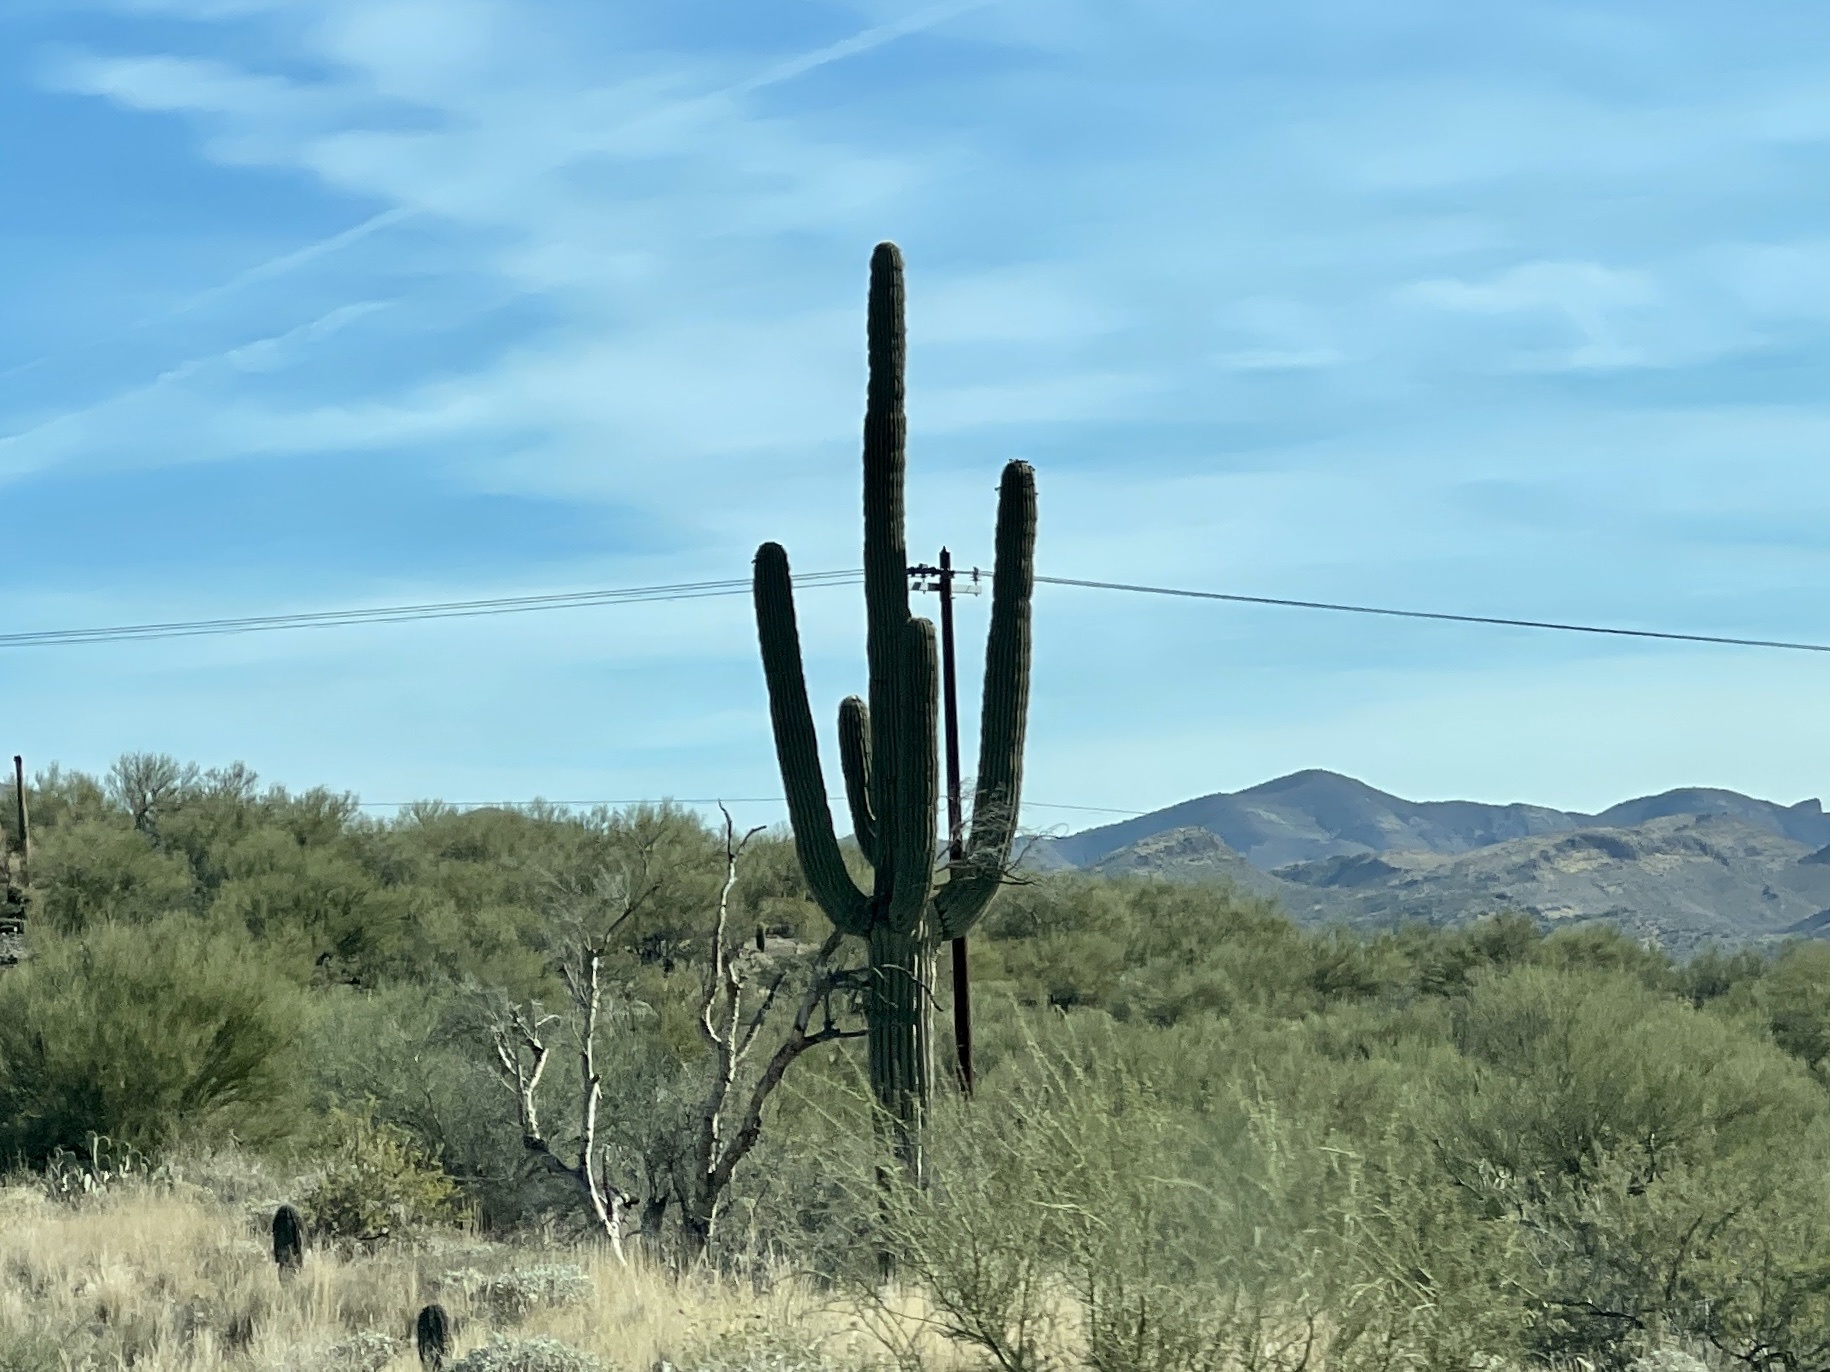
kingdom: Plantae
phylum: Tracheophyta
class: Magnoliopsida
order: Caryophyllales
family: Cactaceae
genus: Carnegiea
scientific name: Carnegiea gigantea
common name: Saguaro
